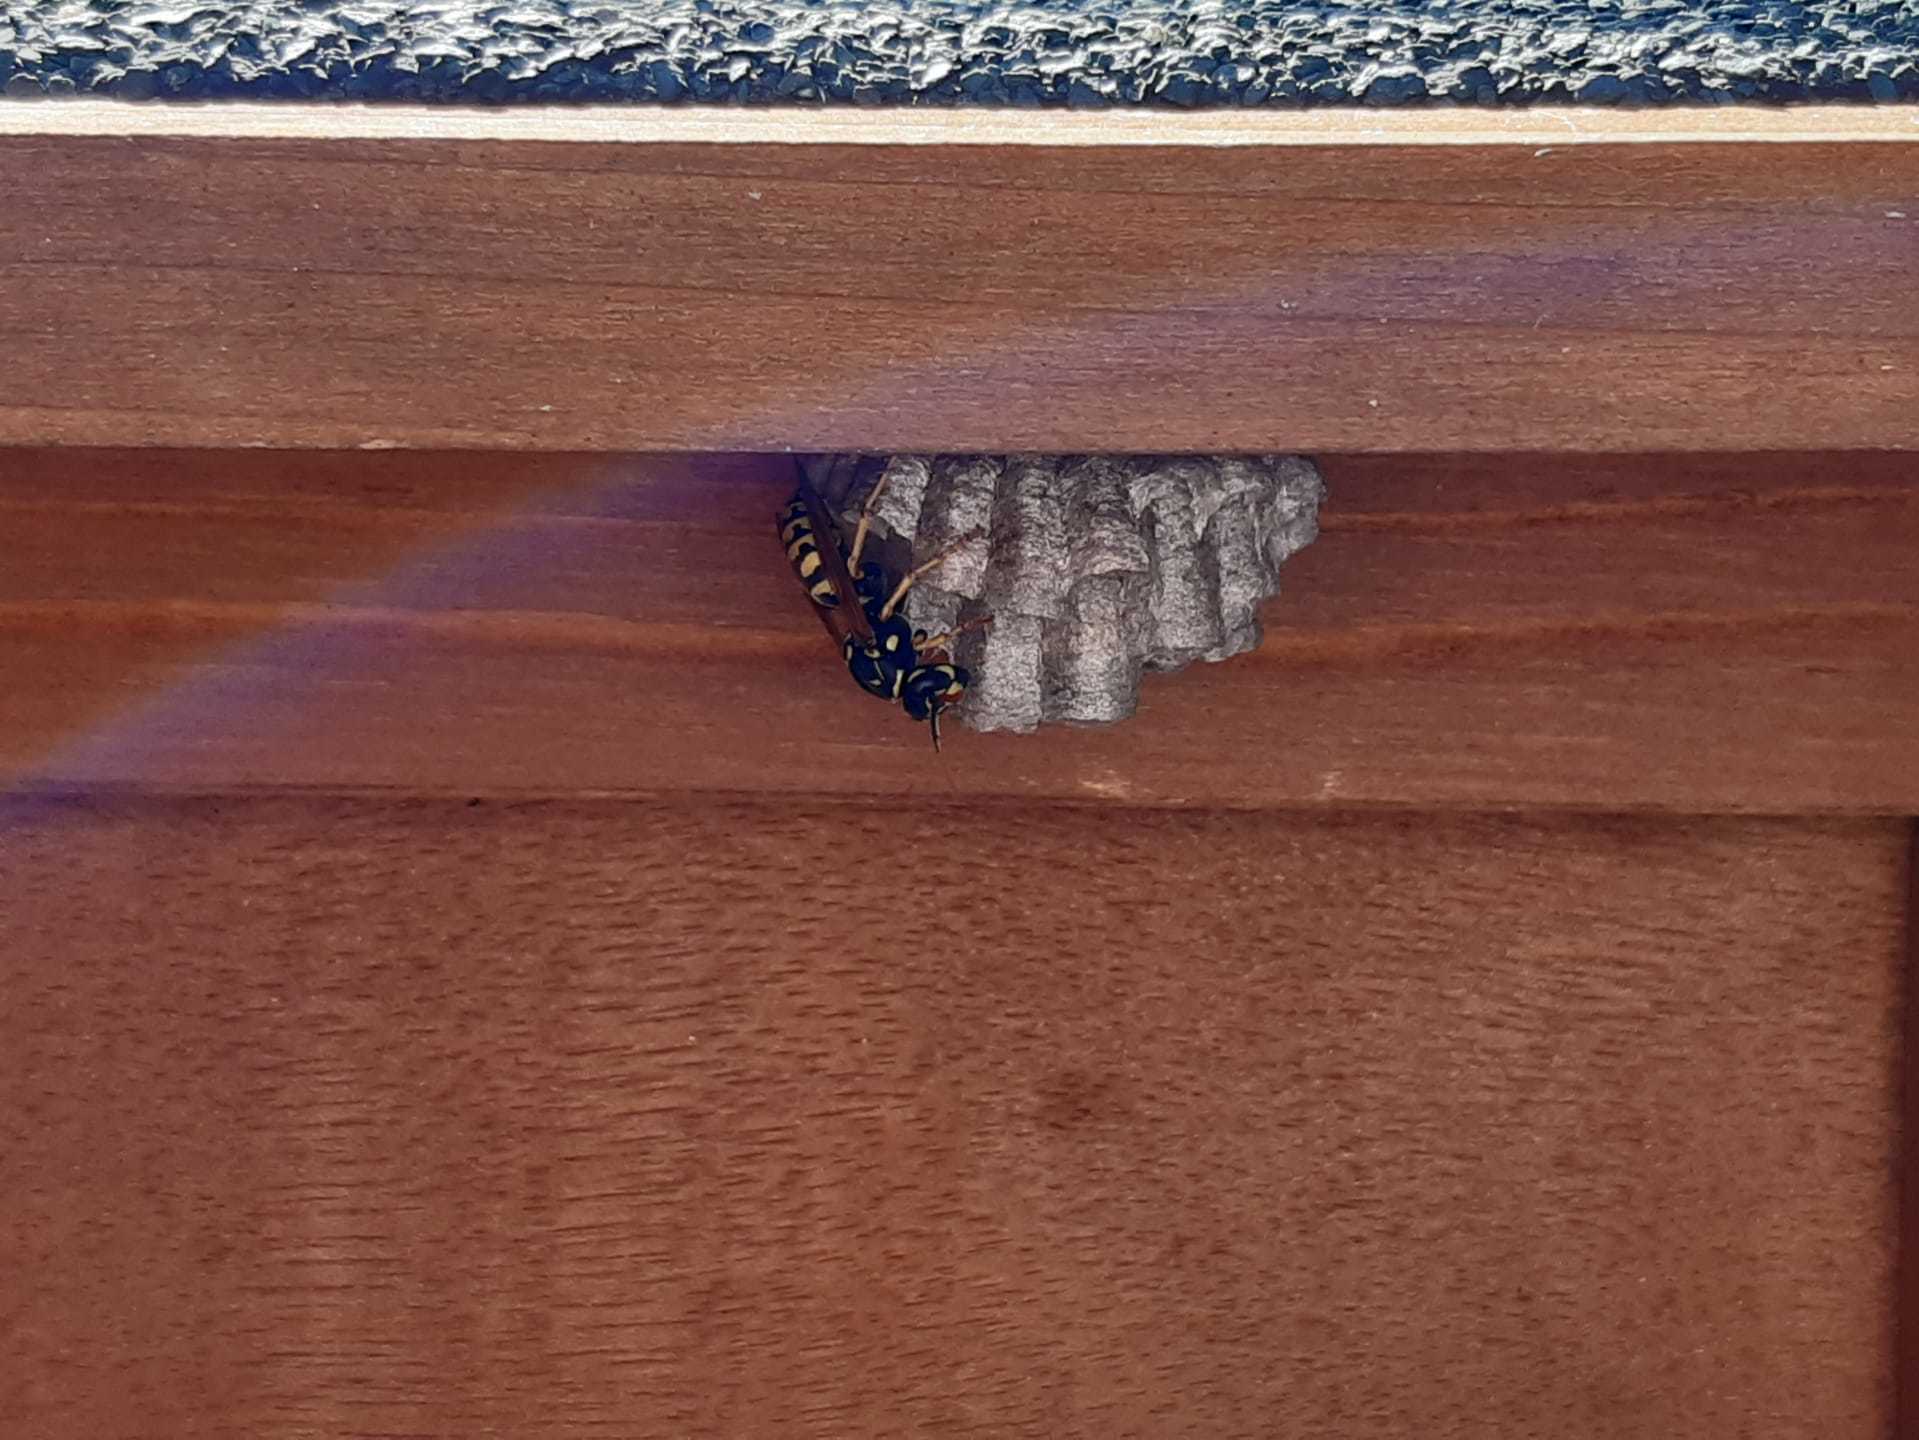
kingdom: Animalia
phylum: Arthropoda
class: Insecta
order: Hymenoptera
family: Eumenidae
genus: Polistes
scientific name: Polistes
